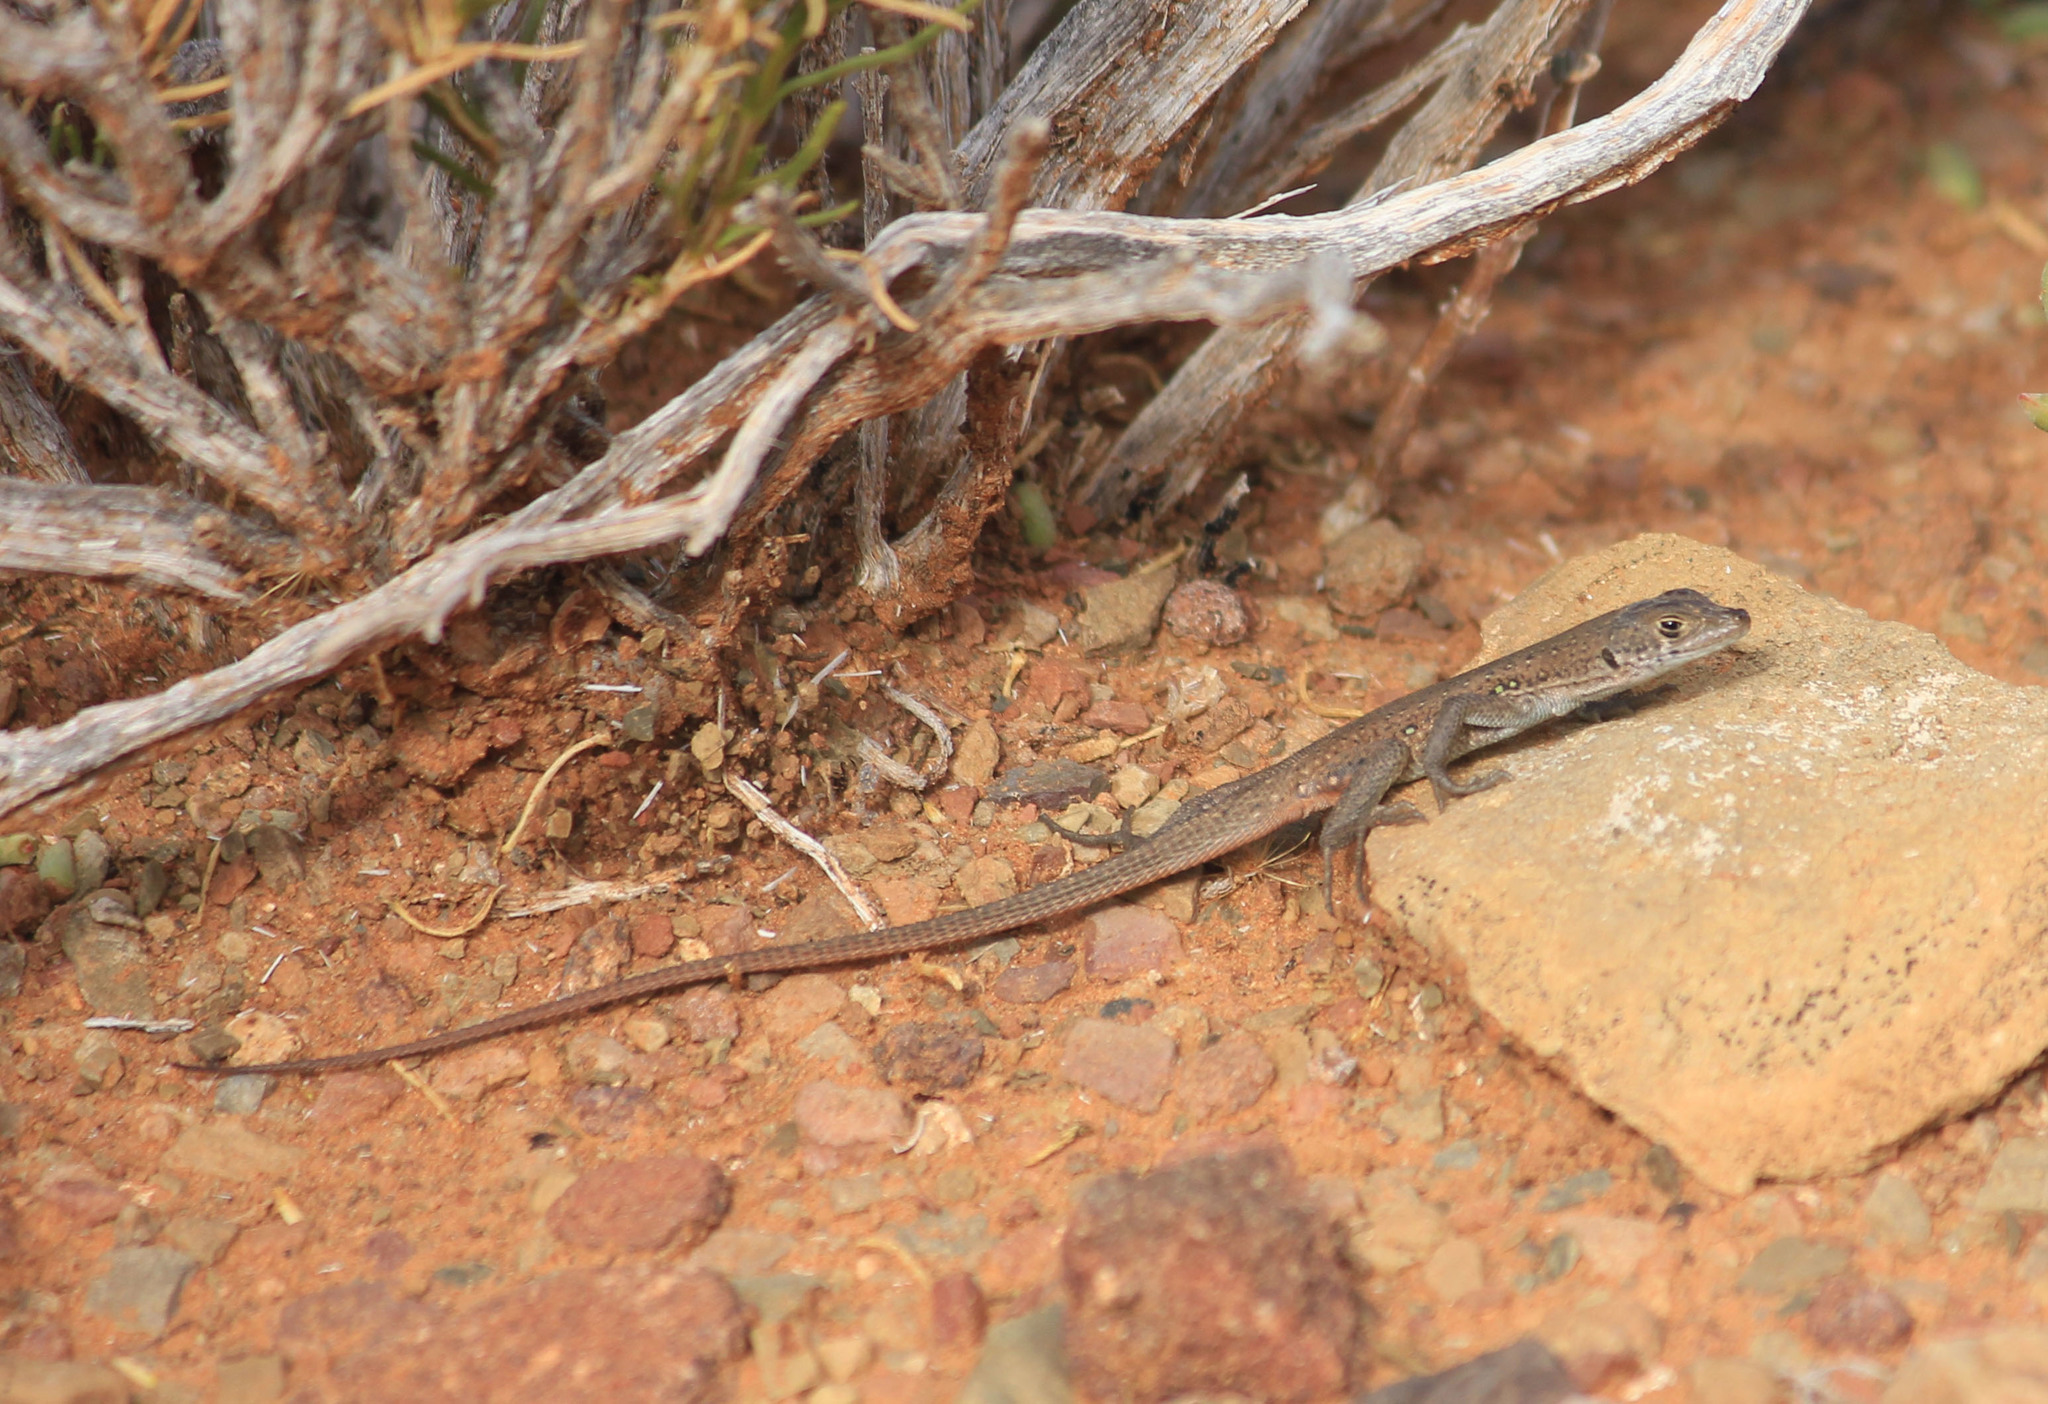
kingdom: Animalia
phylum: Chordata
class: Squamata
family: Lacertidae
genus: Pedioplanis
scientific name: Pedioplanis lineoocellata
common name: Spotted sand lizard
